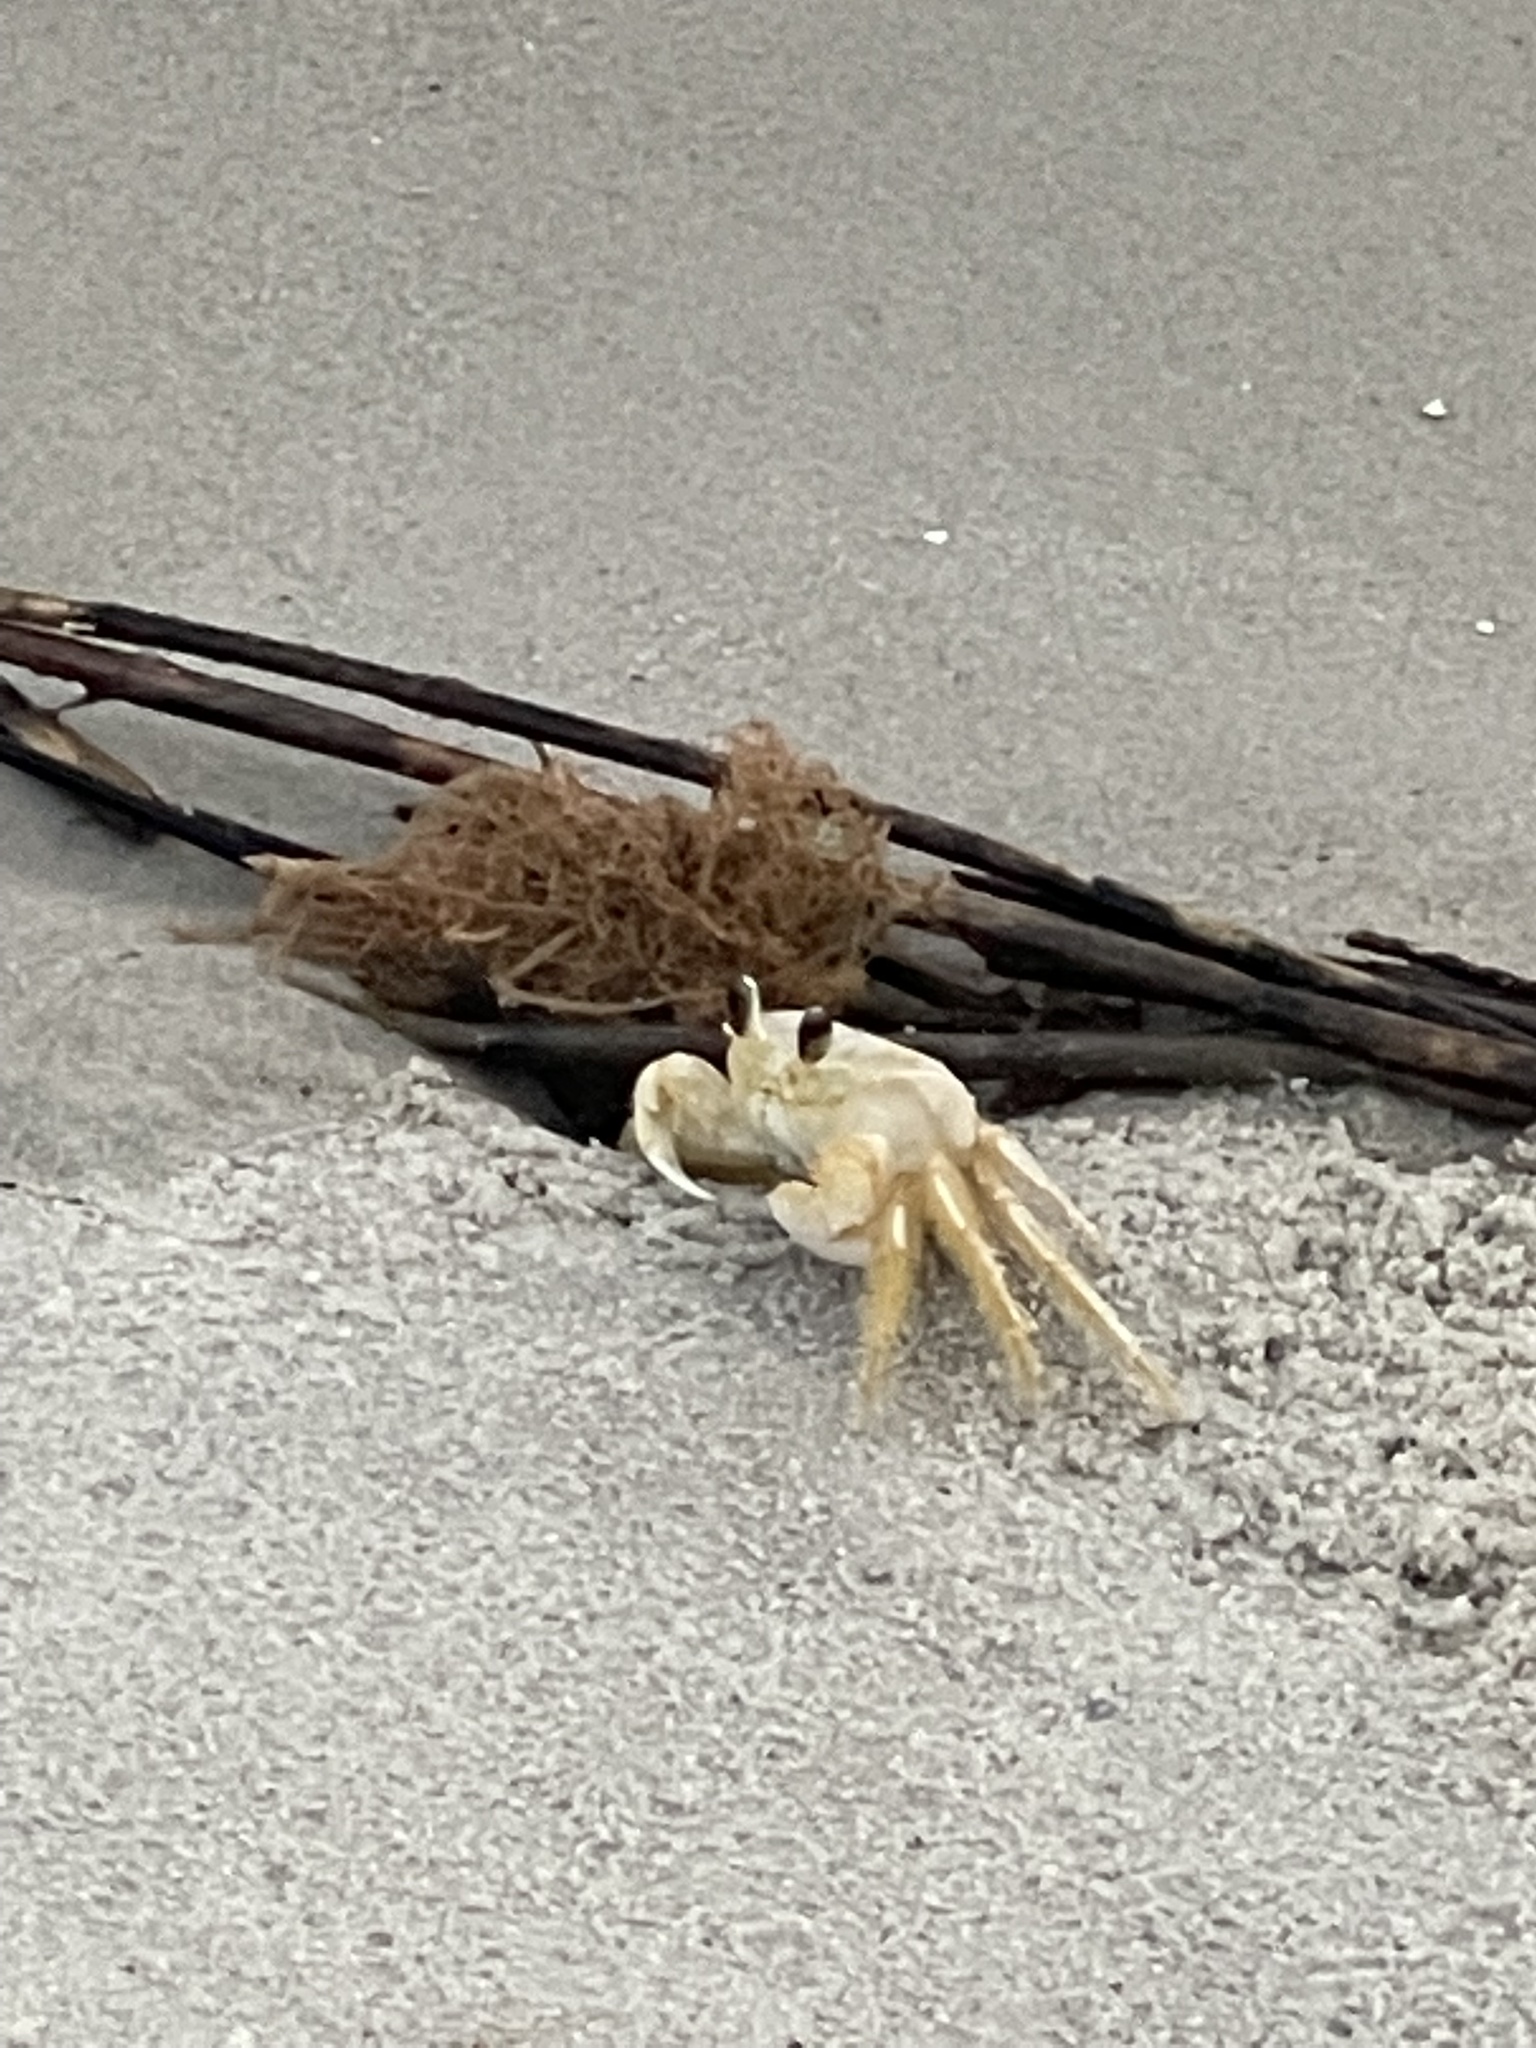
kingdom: Animalia
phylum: Arthropoda
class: Malacostraca
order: Decapoda
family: Ocypodidae
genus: Ocypode
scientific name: Ocypode quadrata
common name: Ghost crab
